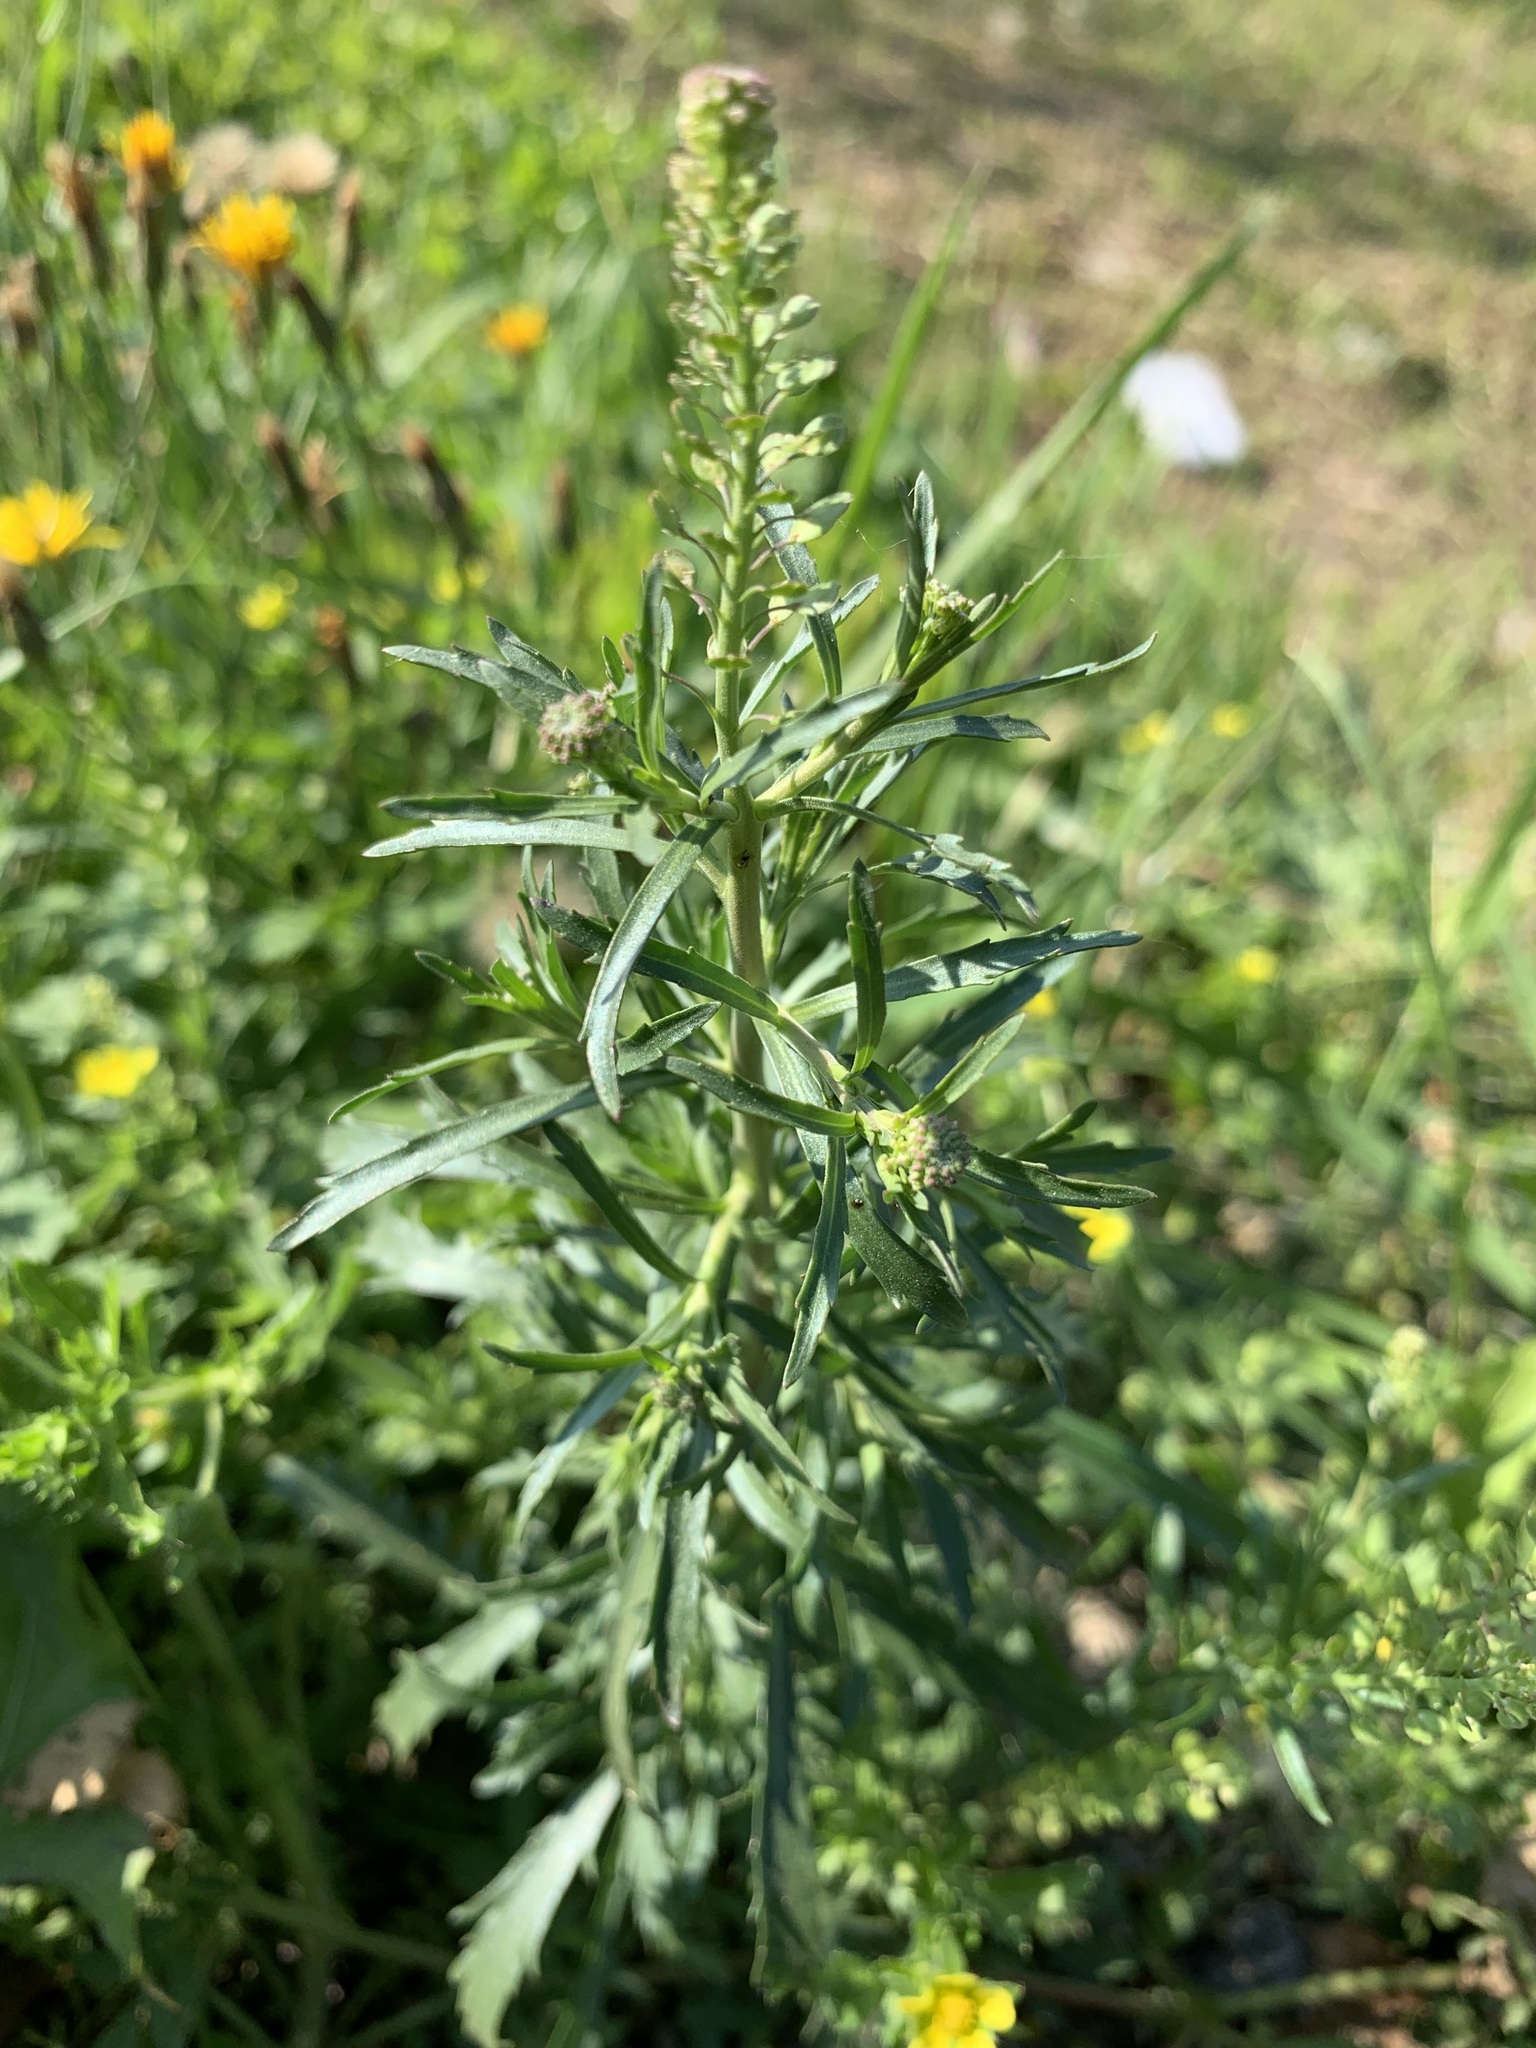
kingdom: Plantae
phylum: Tracheophyta
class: Magnoliopsida
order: Brassicales
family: Brassicaceae
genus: Lepidium
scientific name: Lepidium densiflorum
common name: Miner's pepperwort
